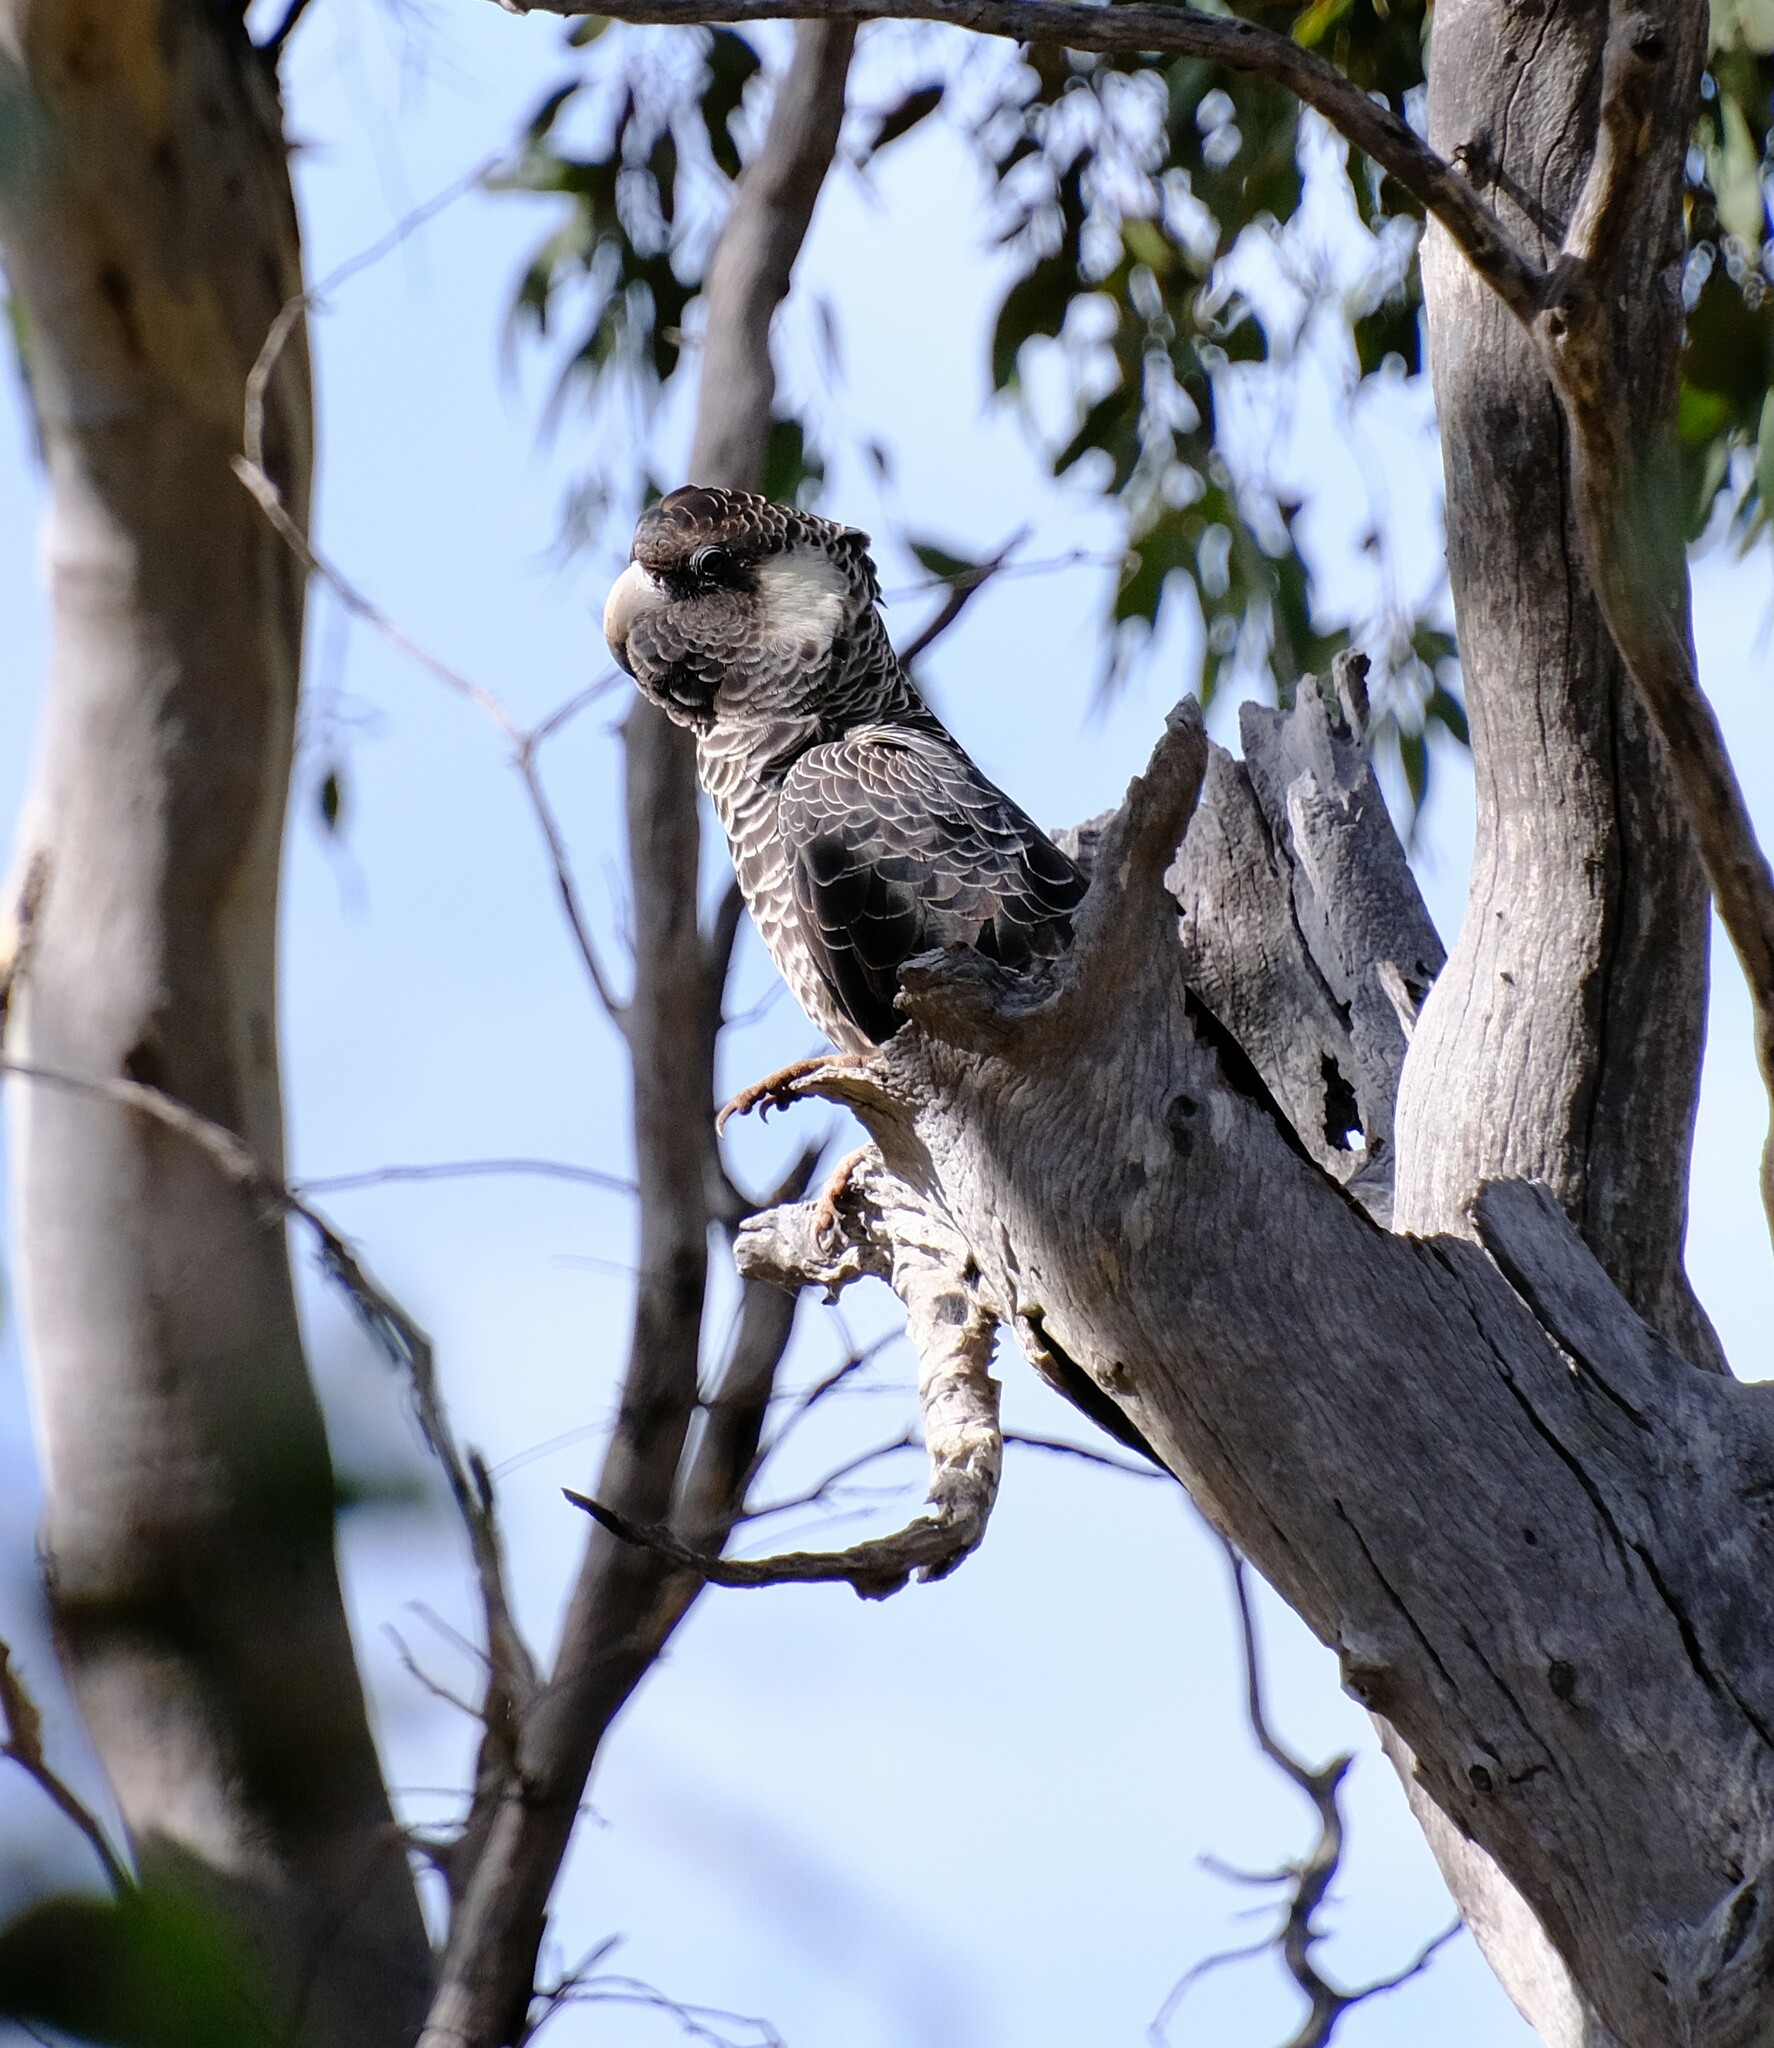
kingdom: Animalia
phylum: Chordata
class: Aves
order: Psittaciformes
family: Cacatuidae
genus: Zanda
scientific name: Zanda latirostris
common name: Short-billed black-cockatoo
